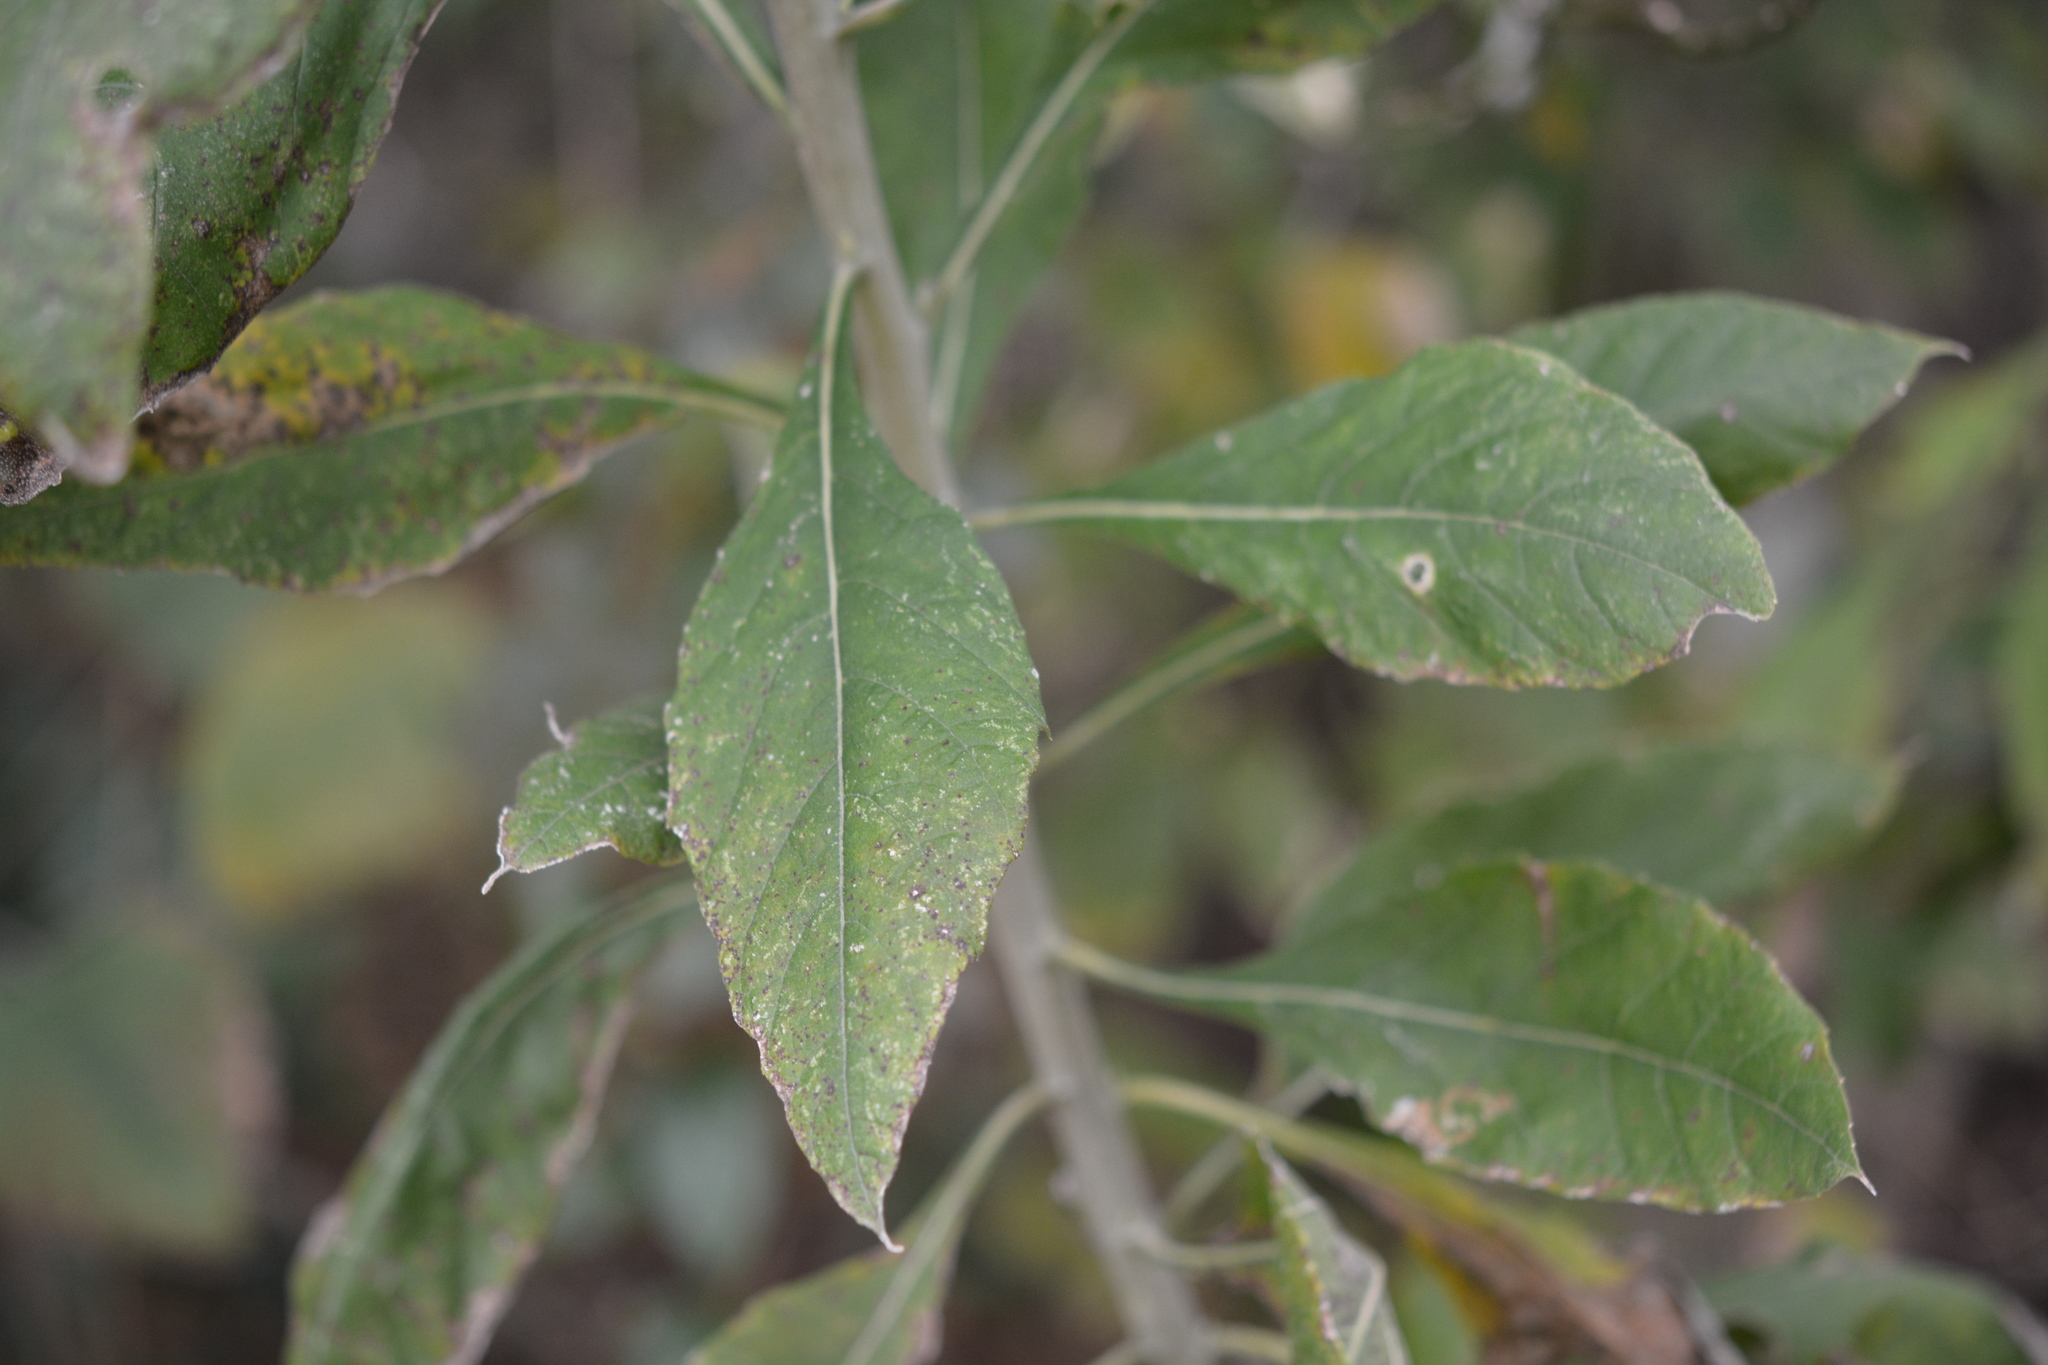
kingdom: Plantae
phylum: Tracheophyta
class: Magnoliopsida
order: Asterales
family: Asteraceae
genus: Verbesina
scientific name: Verbesina virginica
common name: Frostweed
